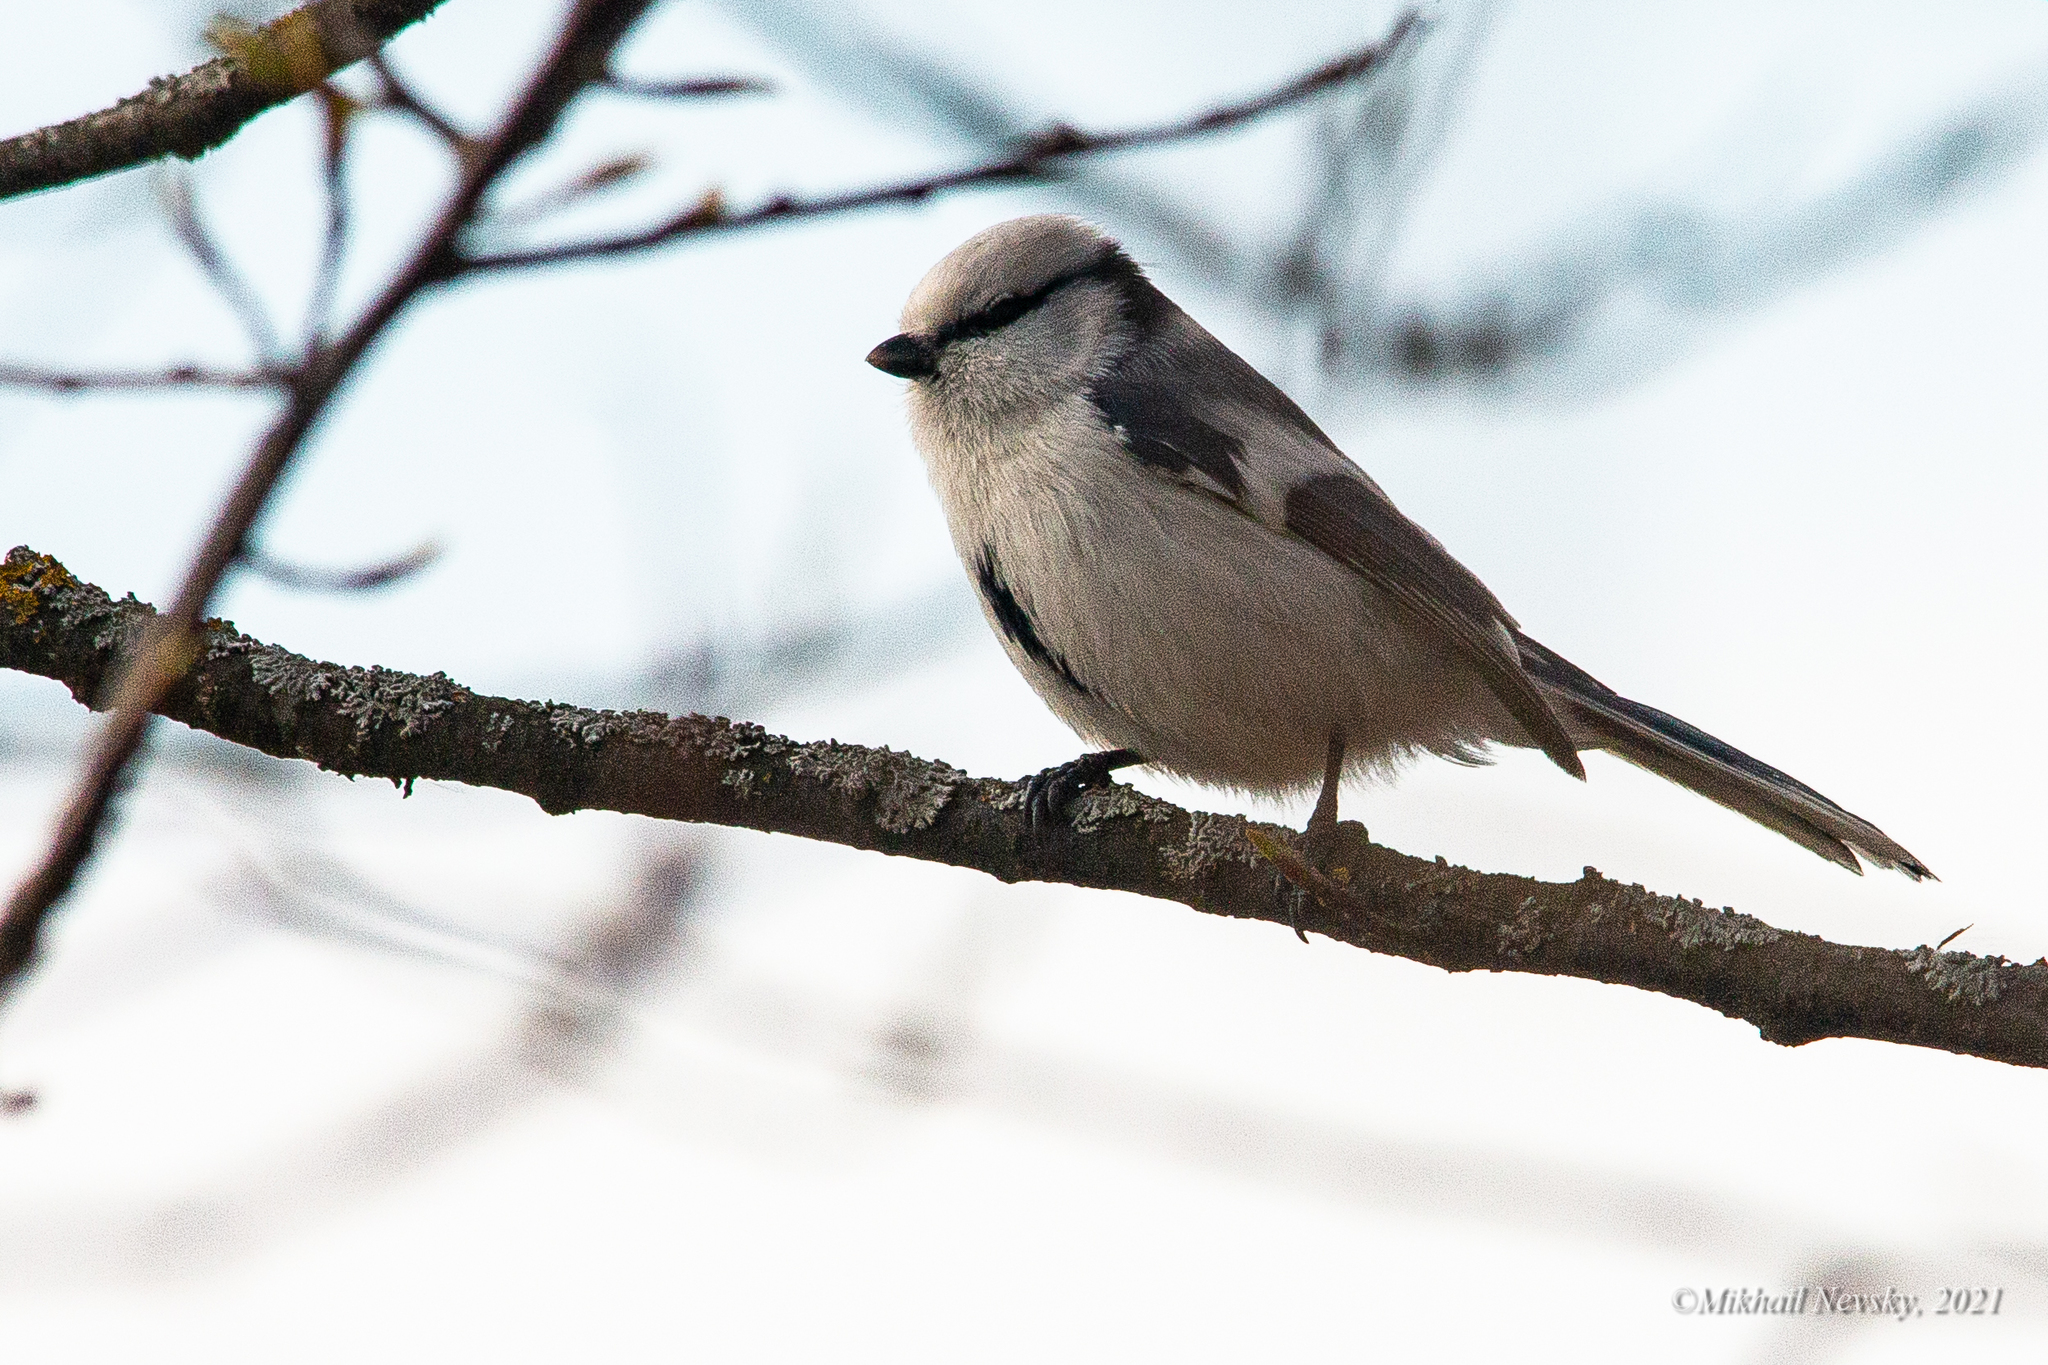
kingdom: Animalia
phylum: Chordata
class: Aves
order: Passeriformes
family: Paridae
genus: Cyanistes
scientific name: Cyanistes cyanus
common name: Azure tit
